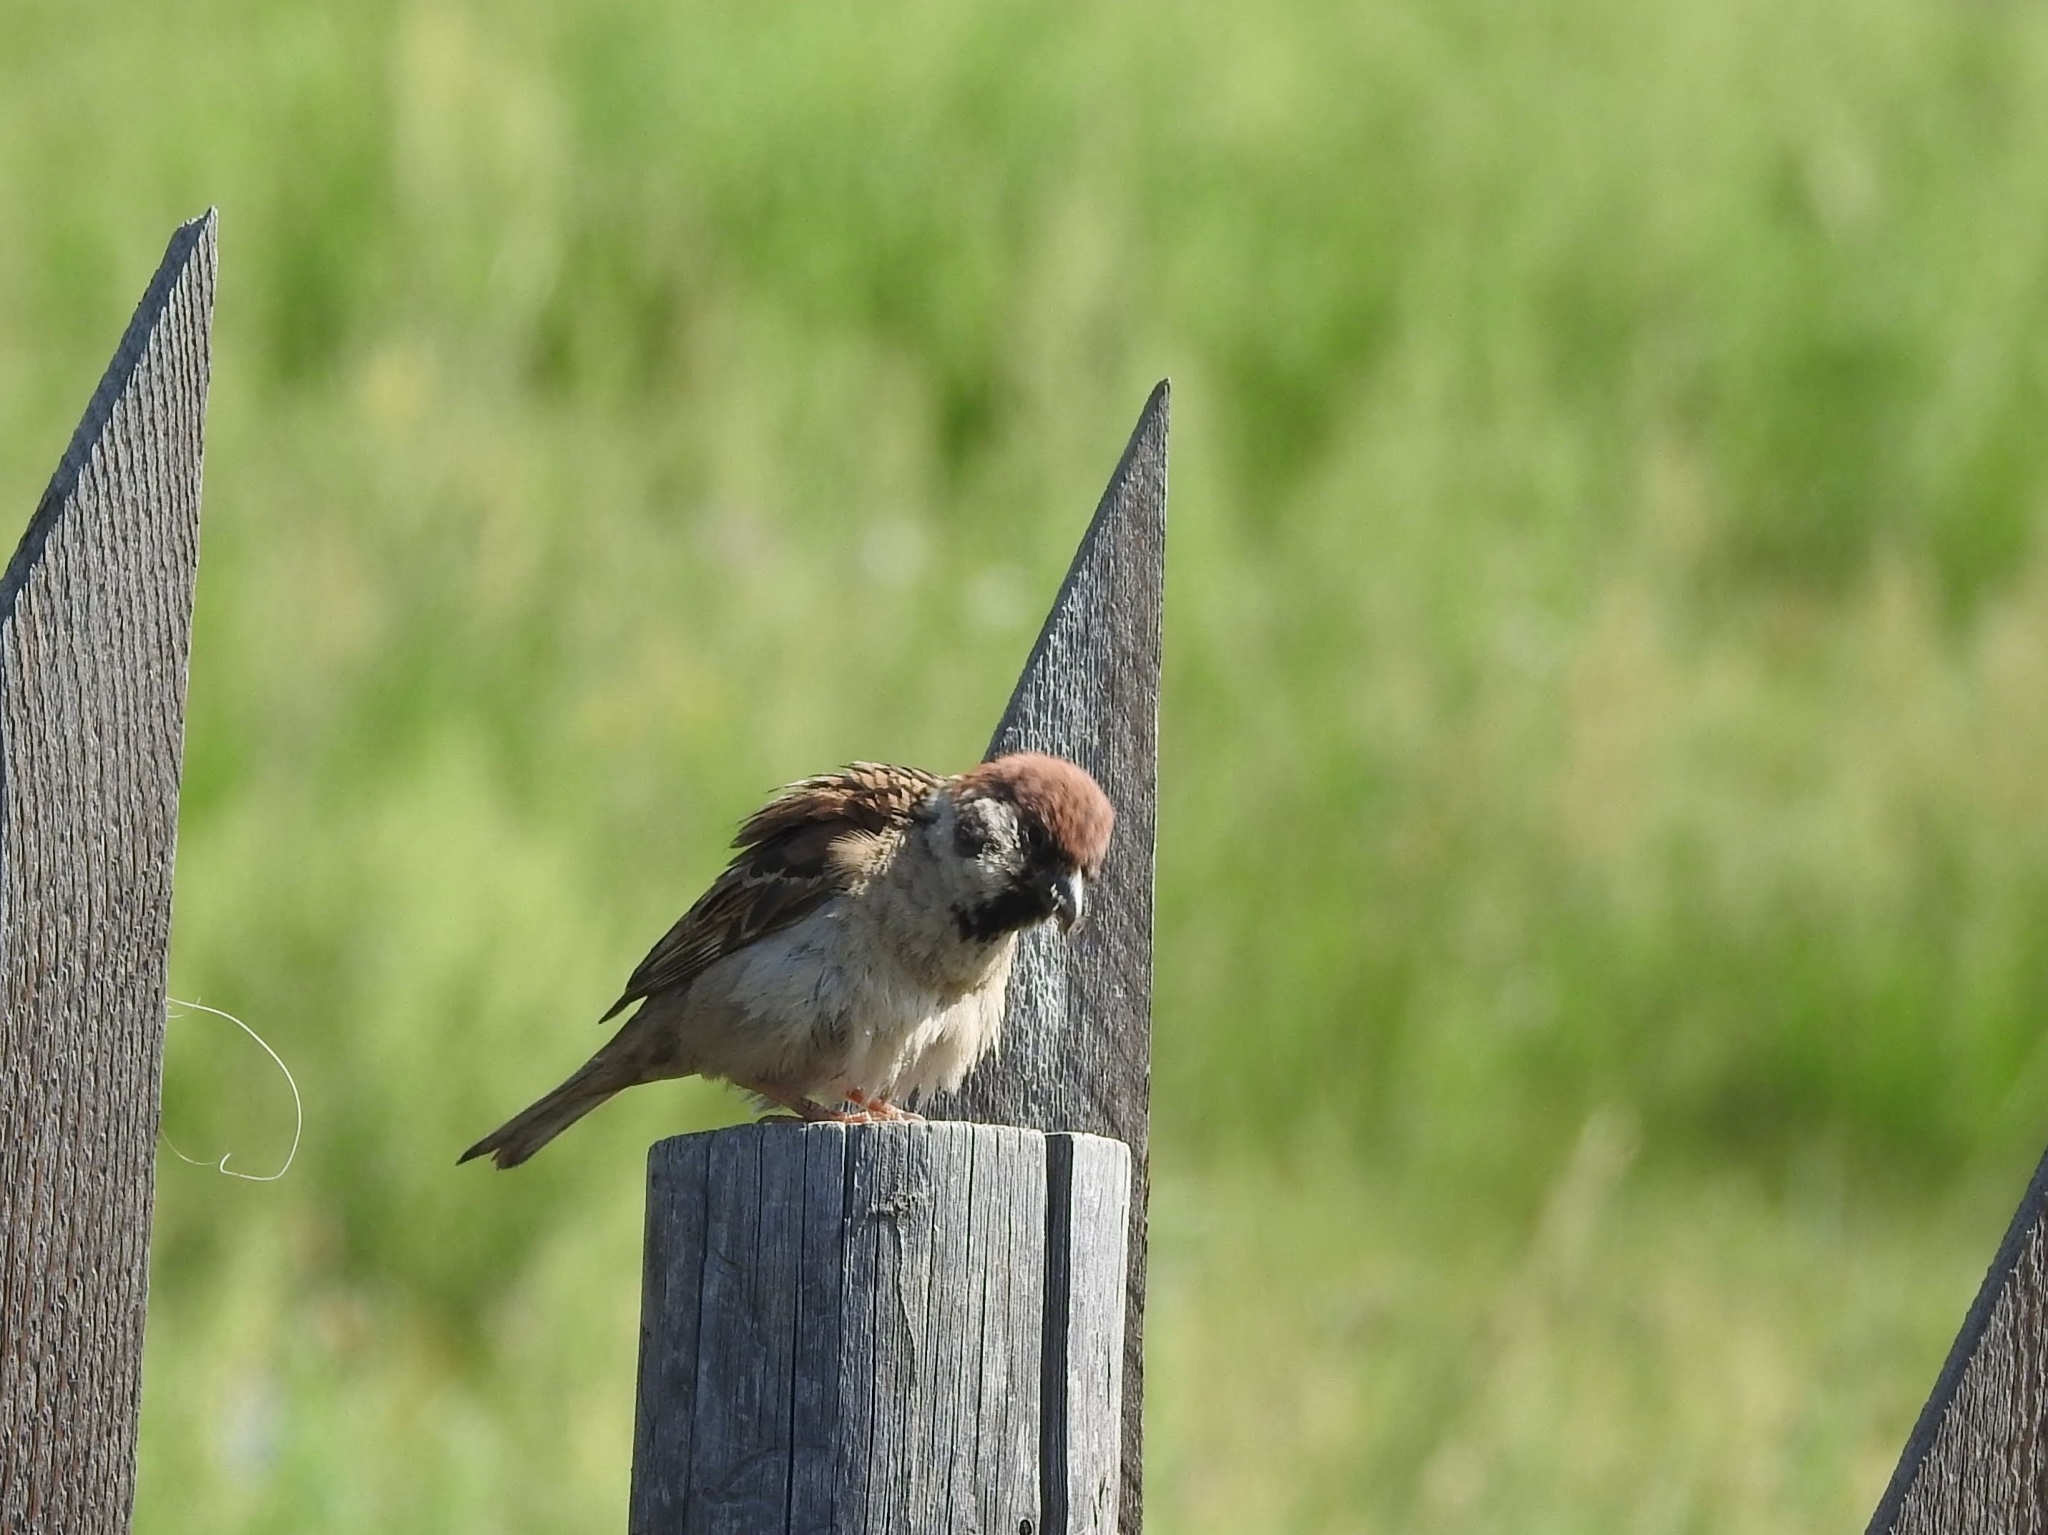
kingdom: Animalia
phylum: Chordata
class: Aves
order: Passeriformes
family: Passeridae
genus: Passer
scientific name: Passer montanus
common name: Eurasian tree sparrow
